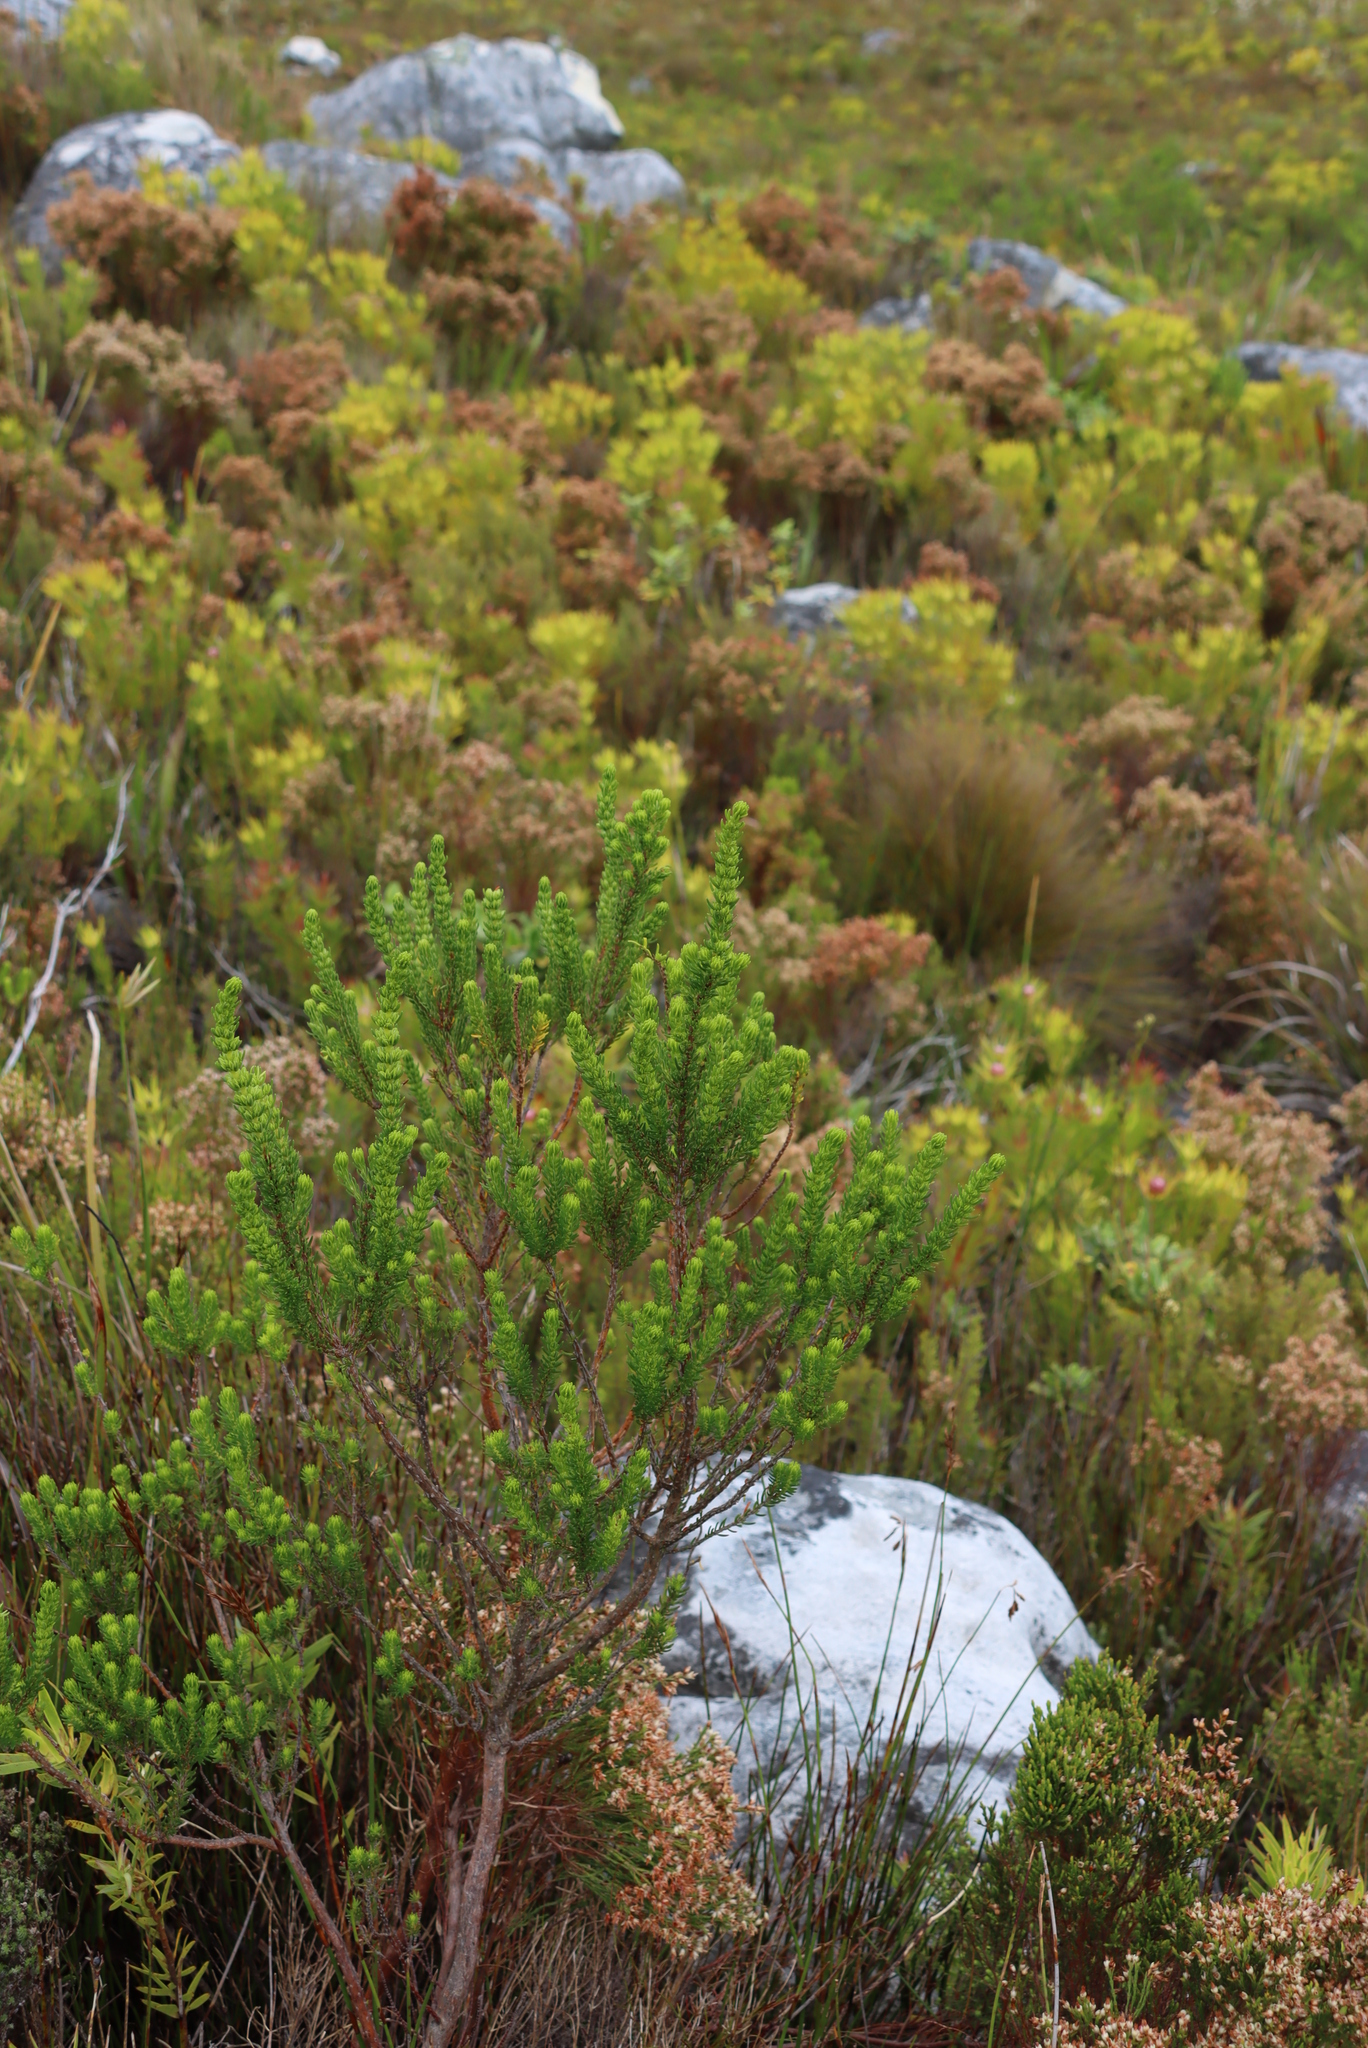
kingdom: Plantae
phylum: Tracheophyta
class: Magnoliopsida
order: Ericales
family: Ericaceae
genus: Erica
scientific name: Erica mammosa
